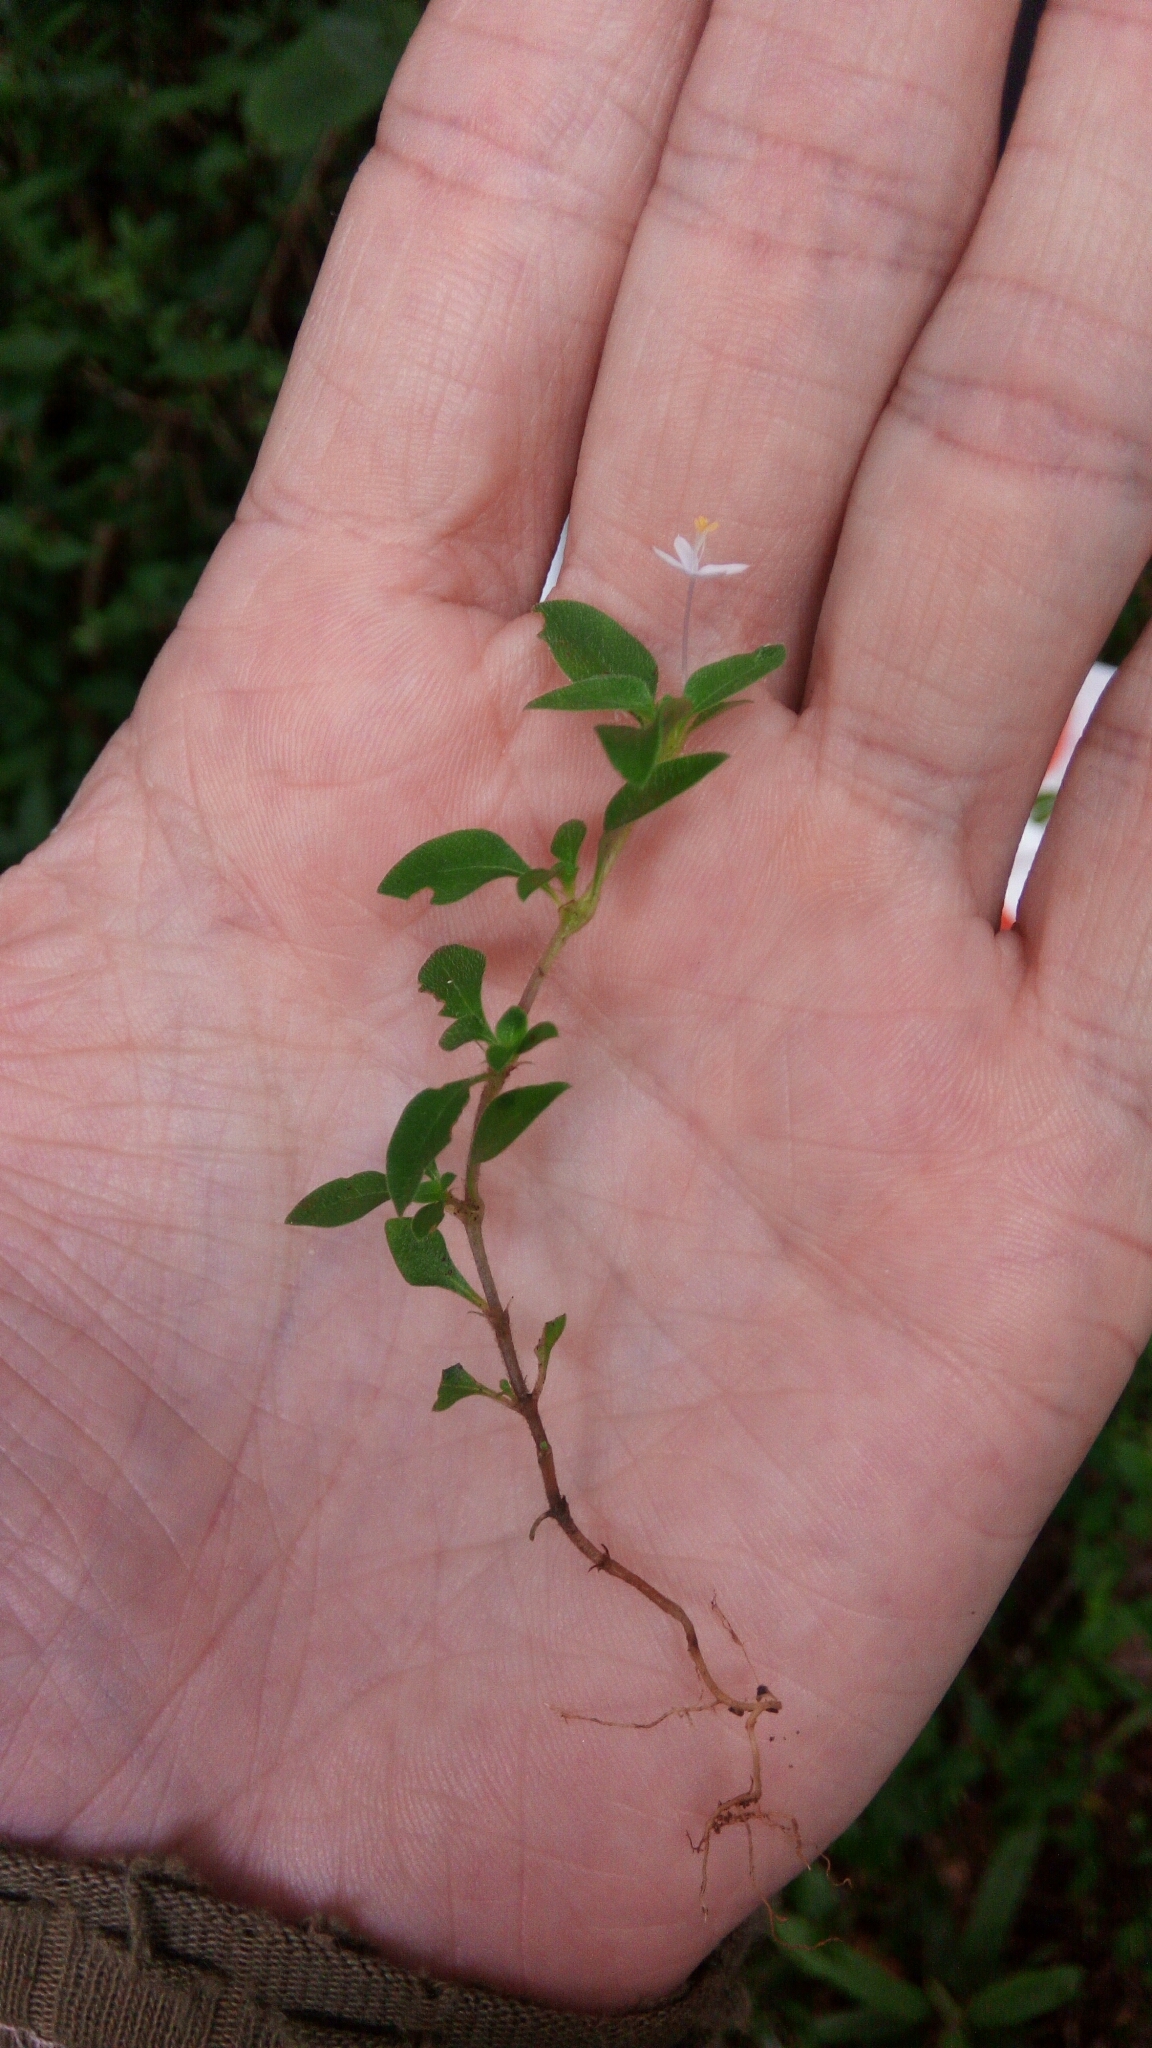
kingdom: Plantae
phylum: Tracheophyta
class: Magnoliopsida
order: Gentianales
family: Rubiaceae
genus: Otiophora
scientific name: Otiophora pauciflora
